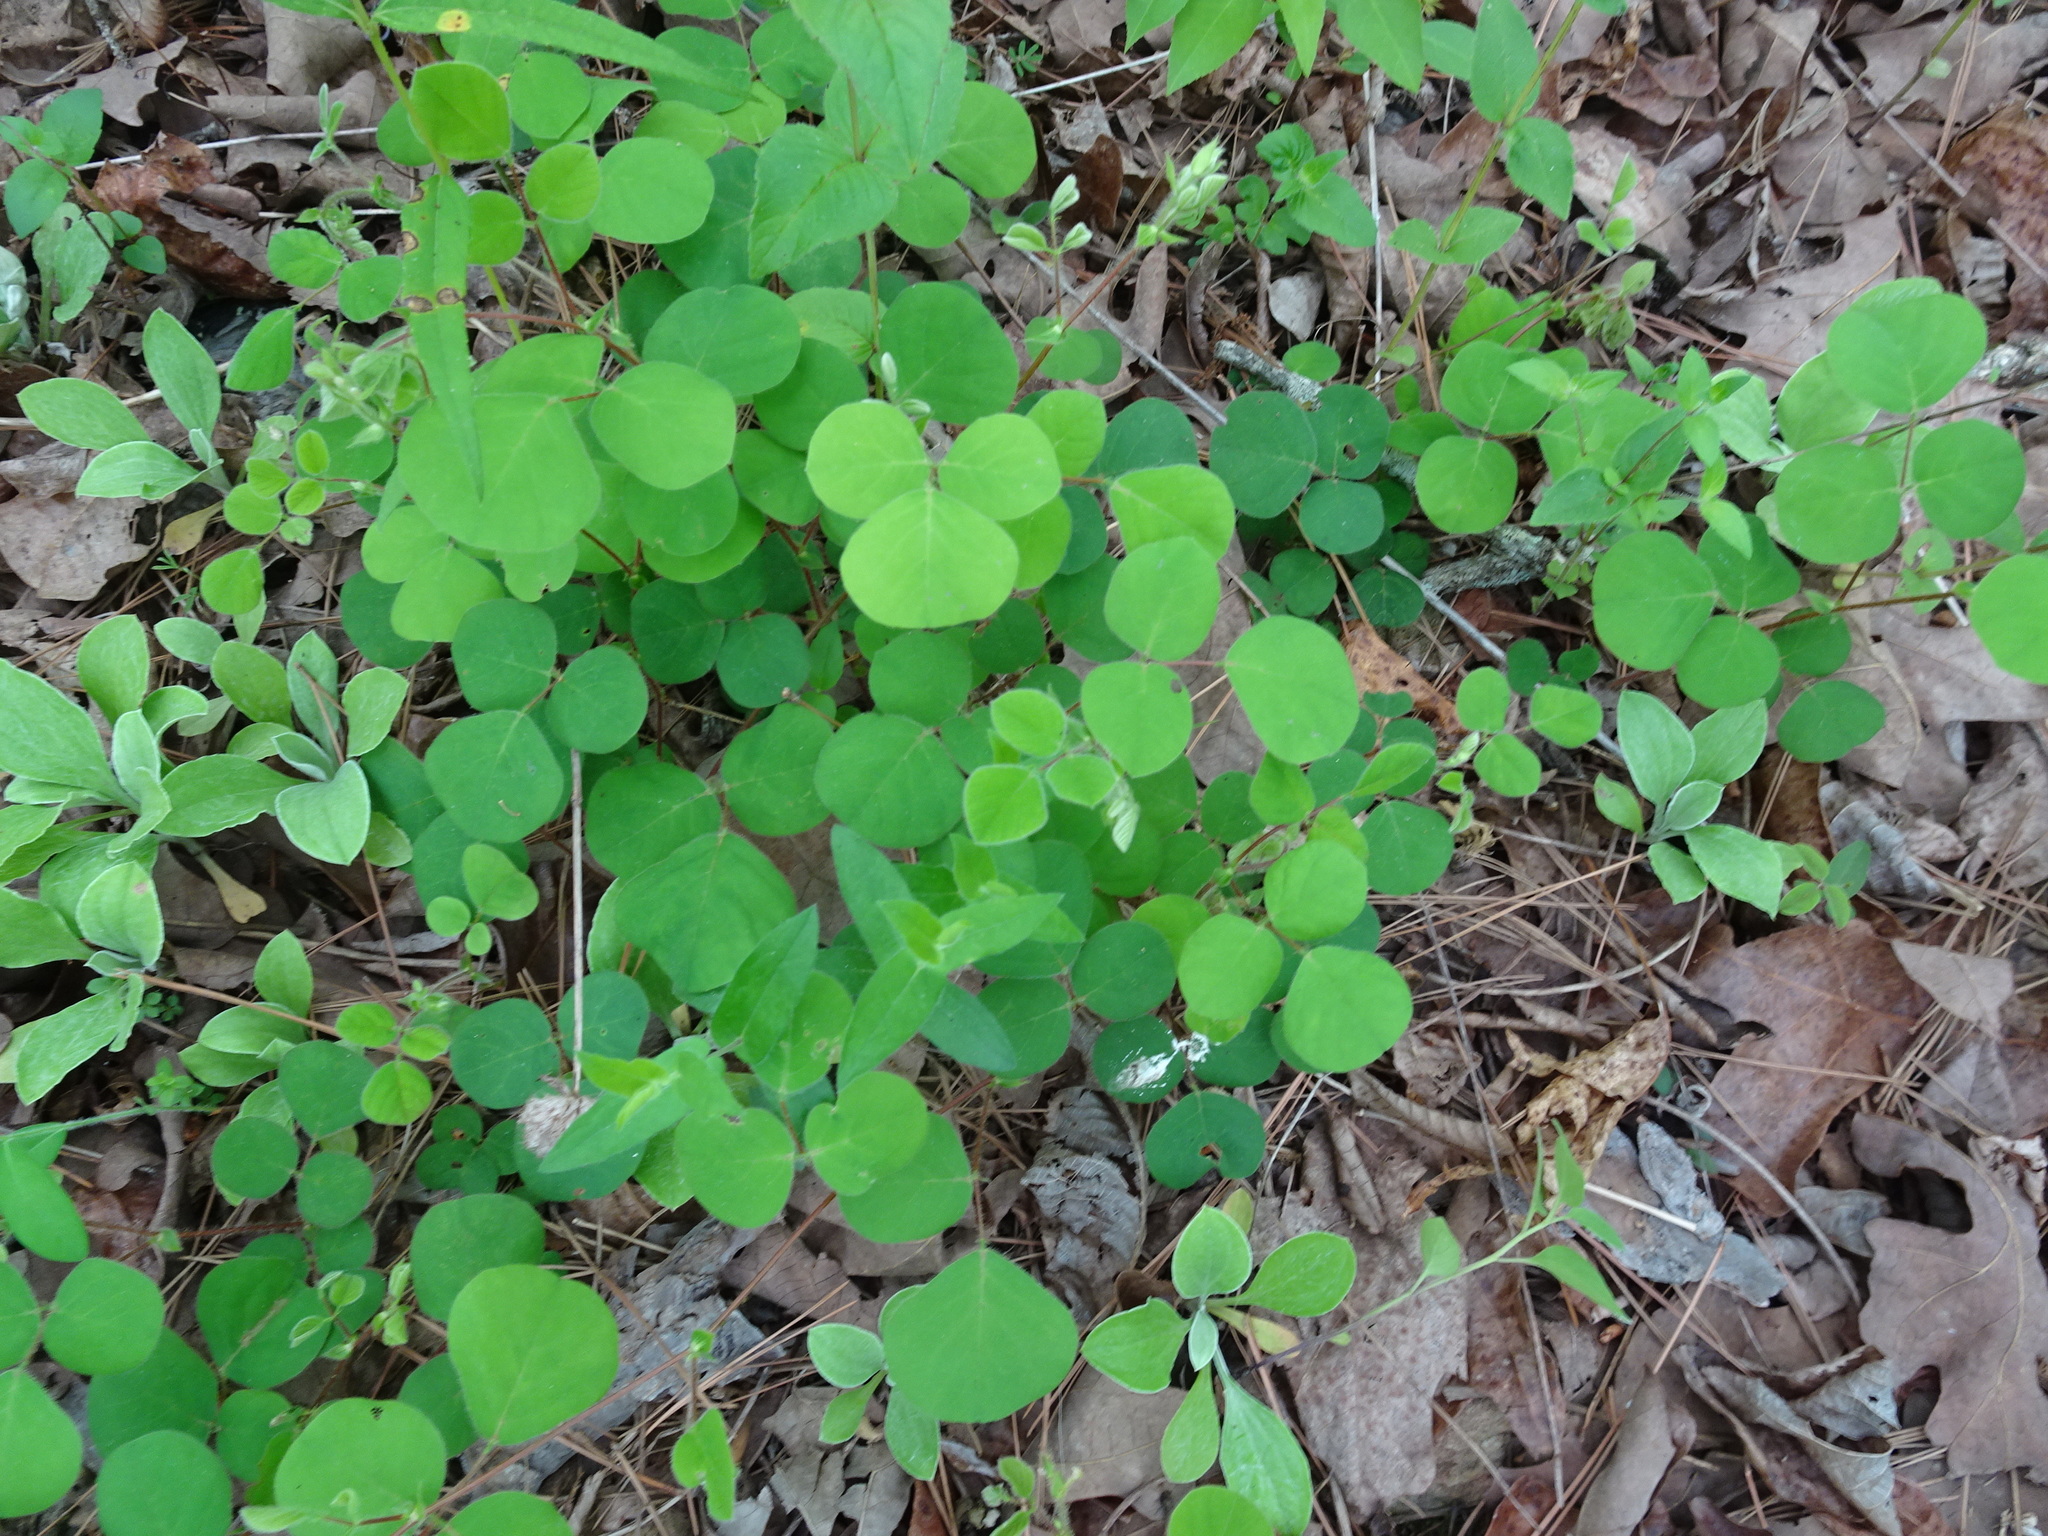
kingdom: Plantae
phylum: Tracheophyta
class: Magnoliopsida
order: Fabales
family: Fabaceae
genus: Desmodium
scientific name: Desmodium rotundifolium
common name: Dollarleaf
